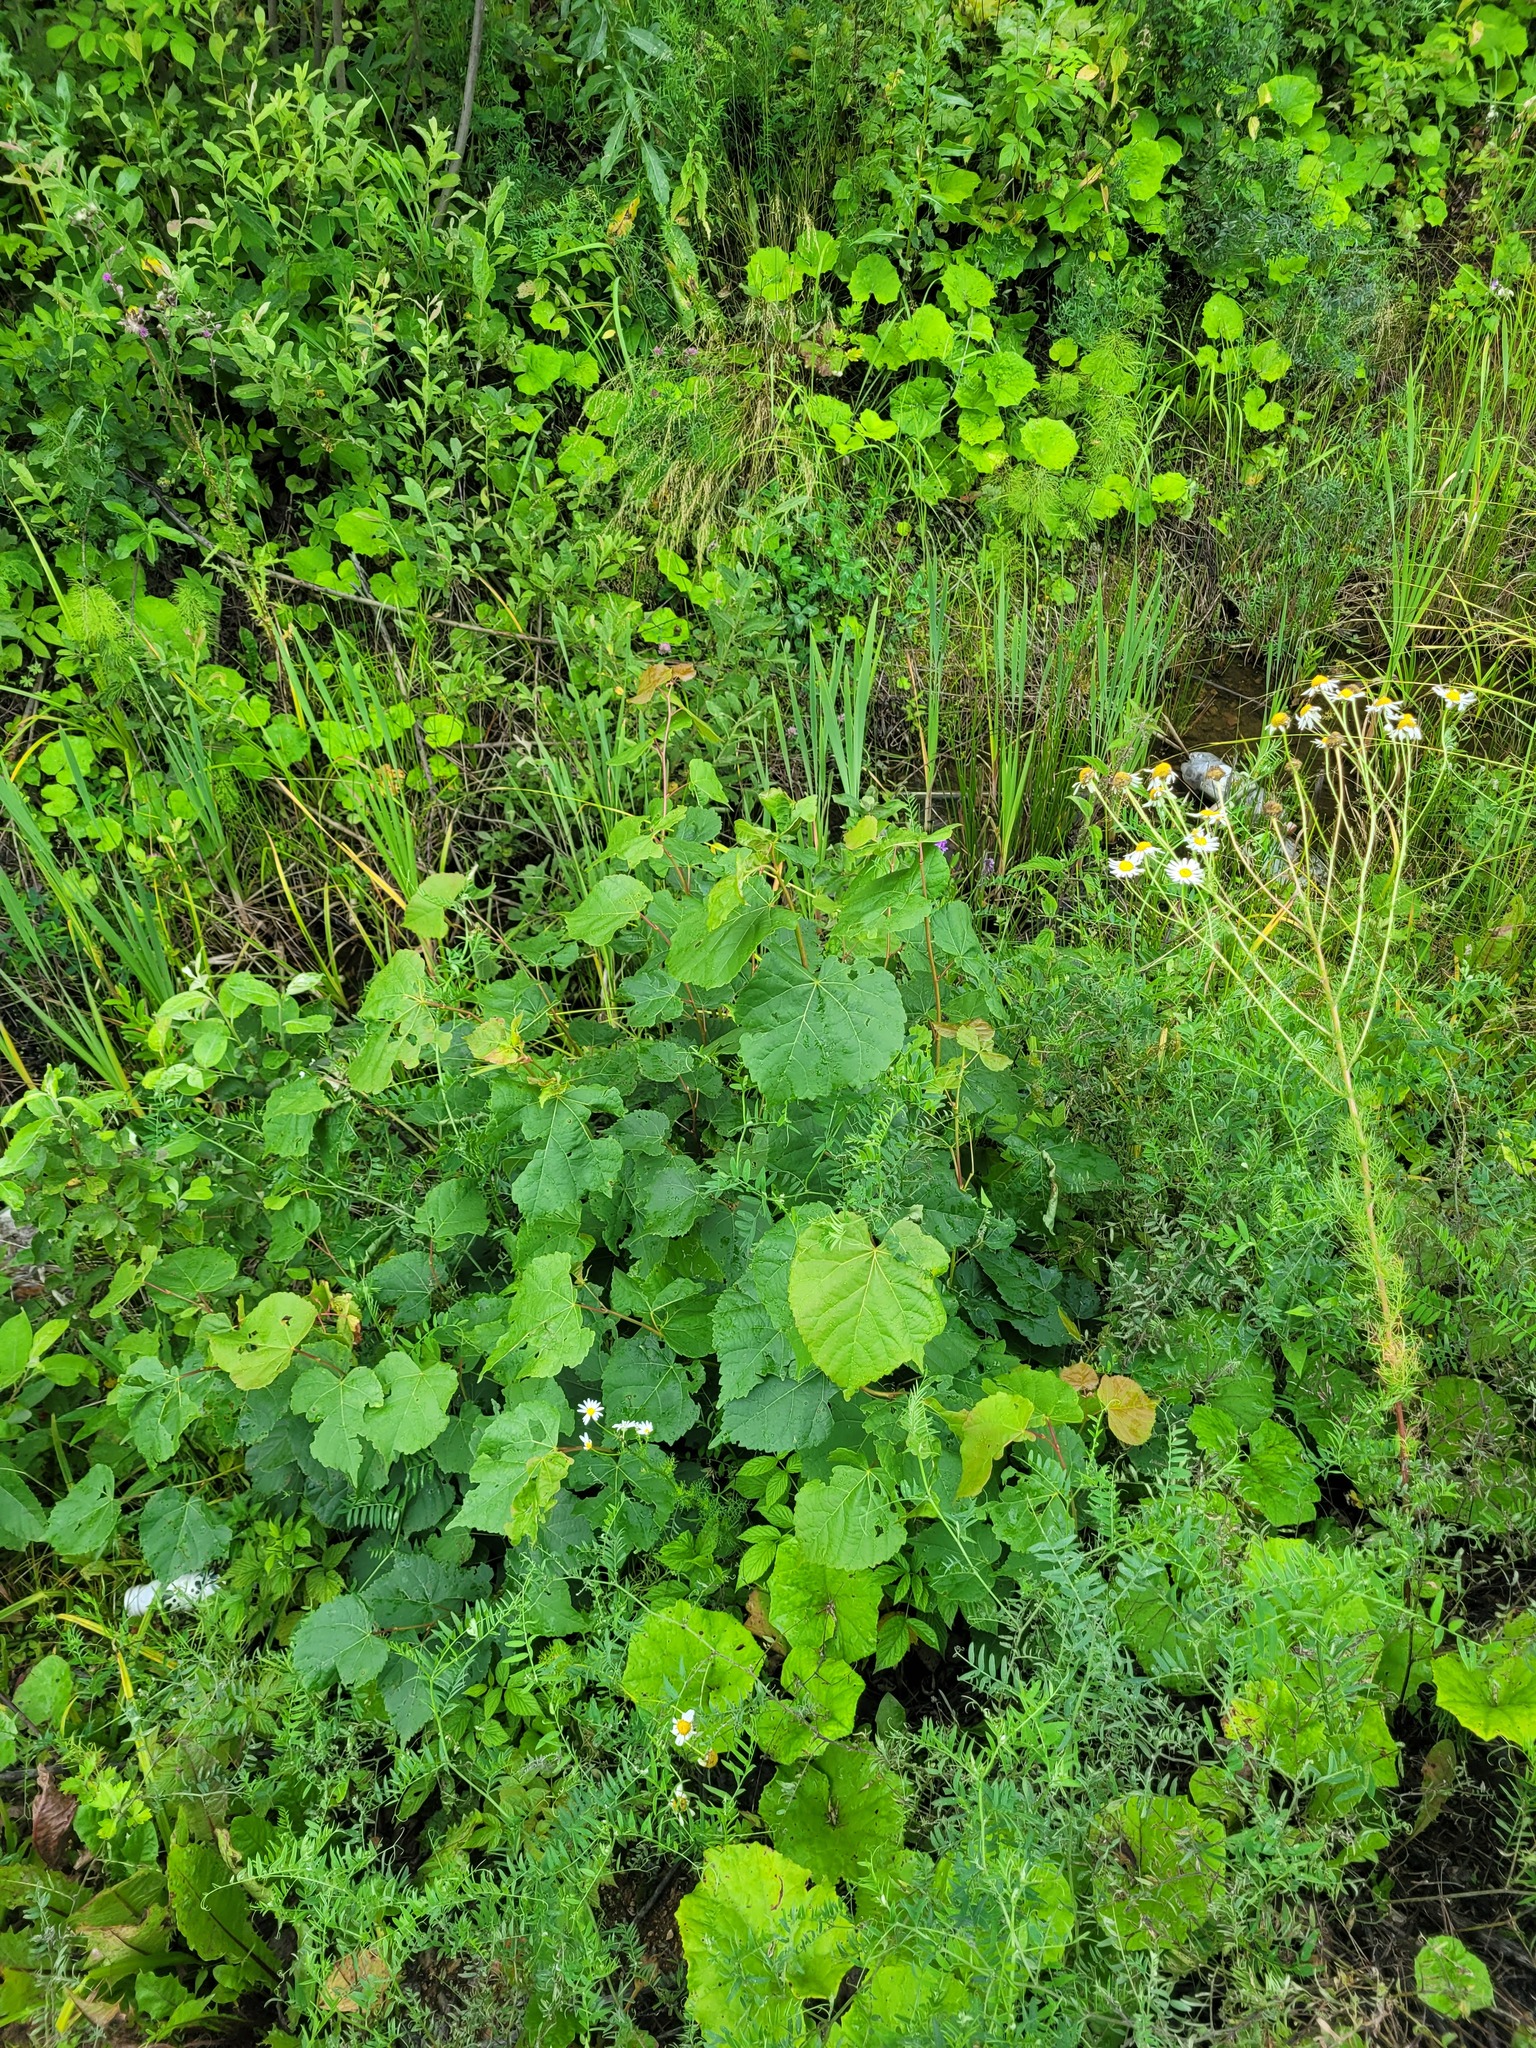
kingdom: Plantae
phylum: Tracheophyta
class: Magnoliopsida
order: Malvales
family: Malvaceae
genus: Tilia
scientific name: Tilia cordata
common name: Small-leaved lime
